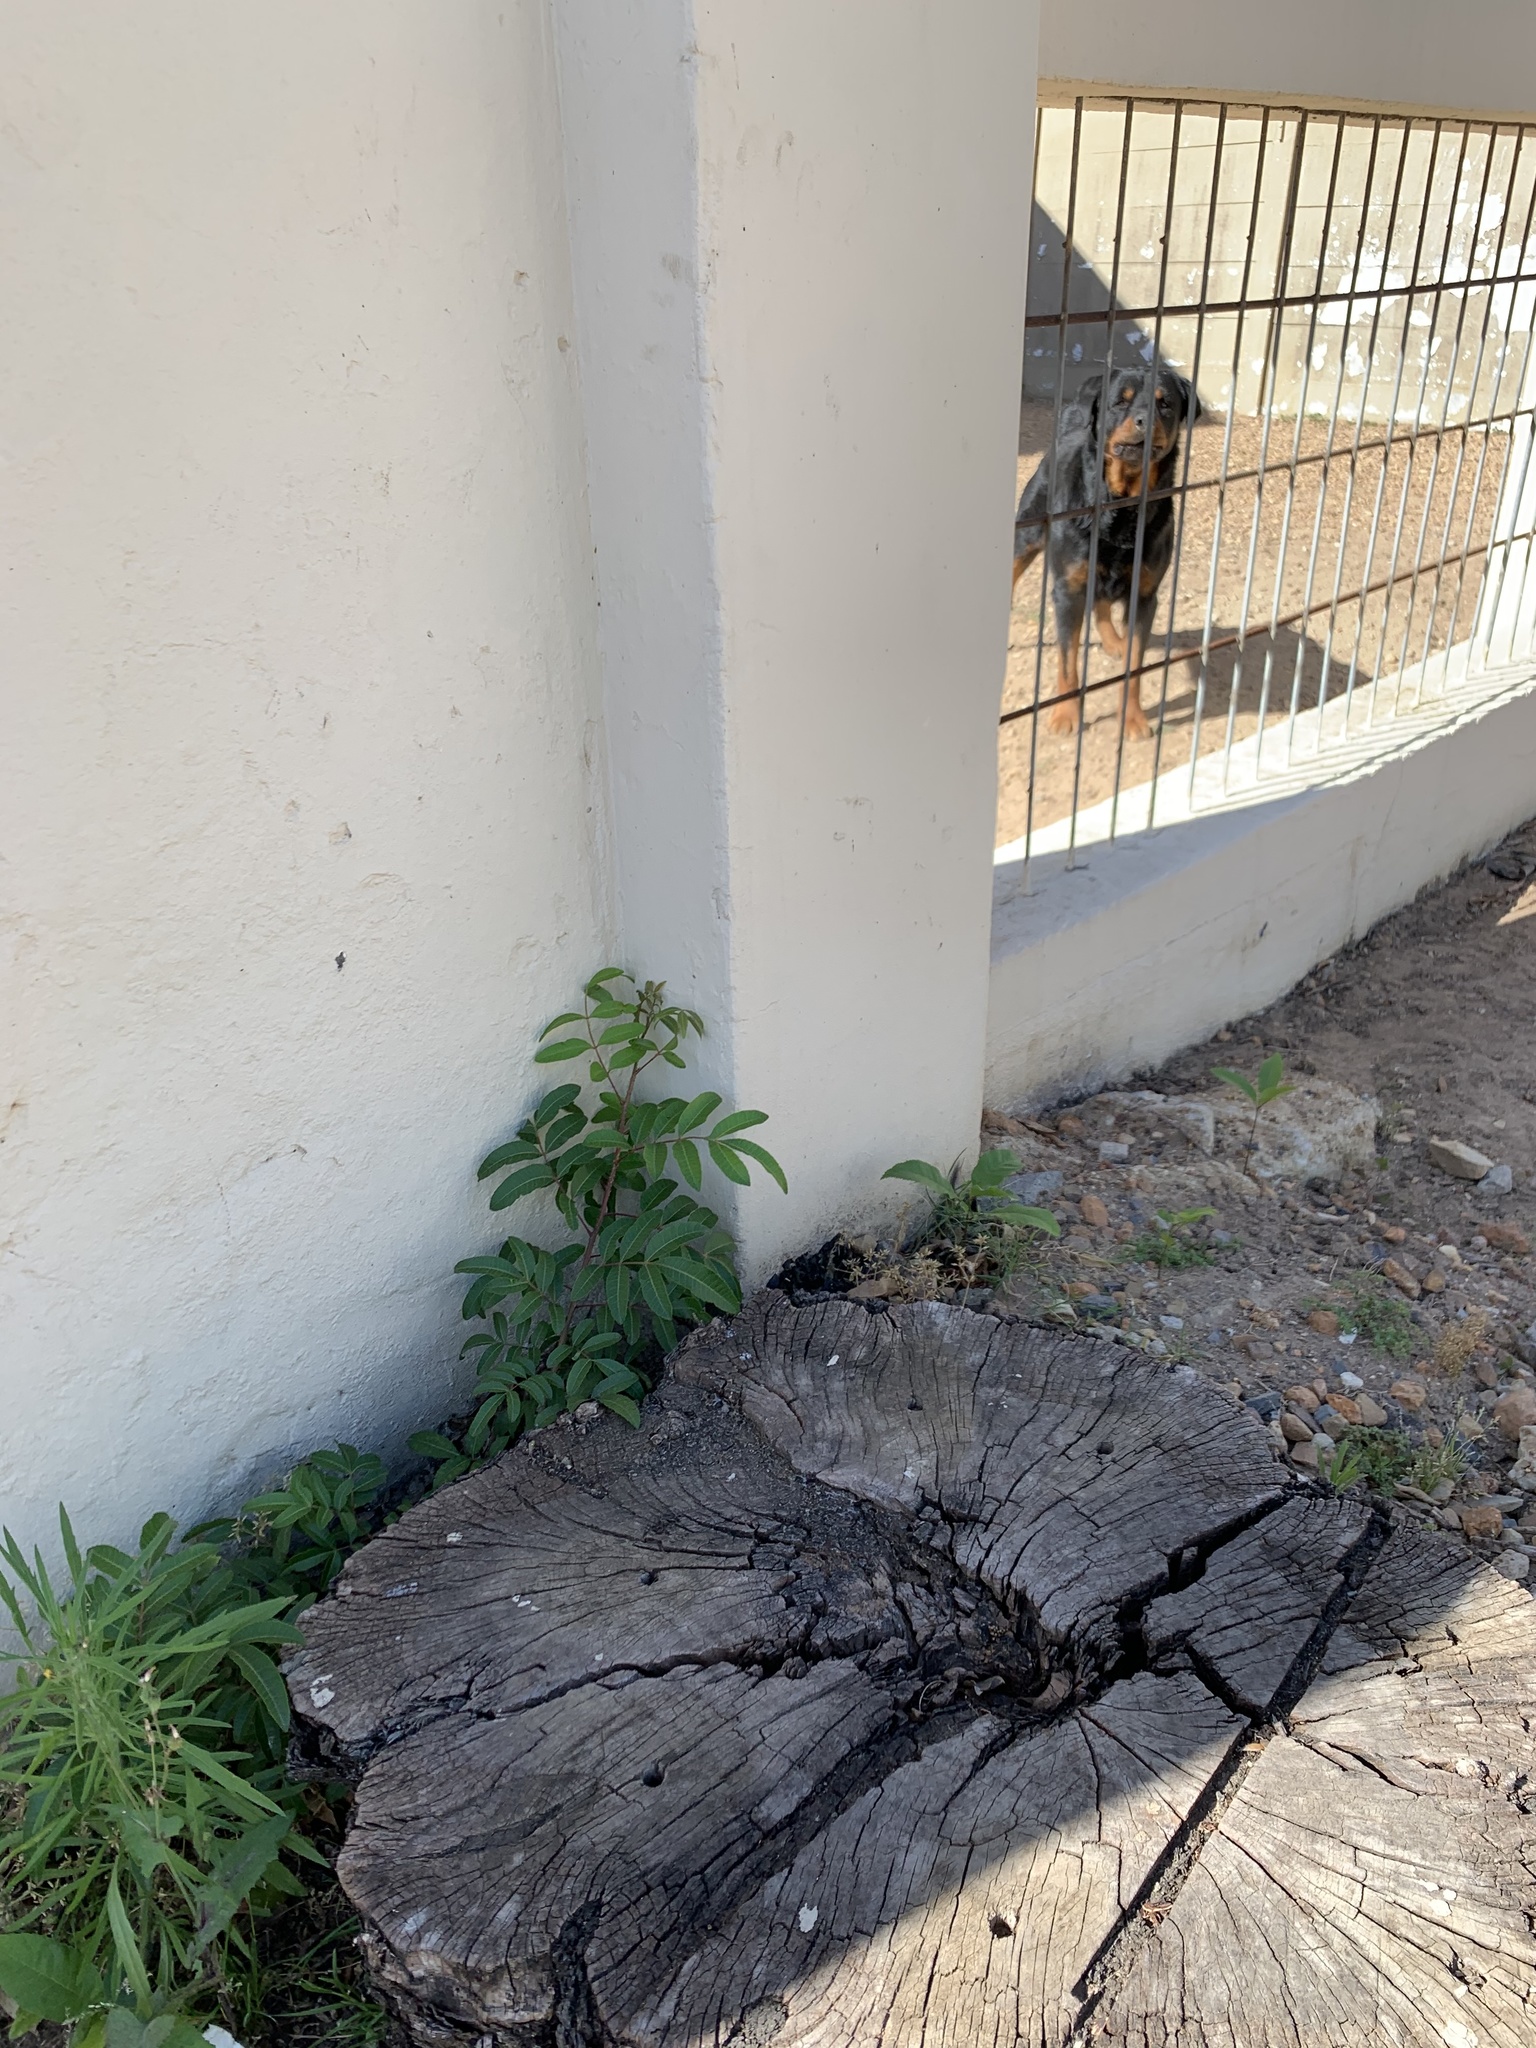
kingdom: Plantae
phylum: Tracheophyta
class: Magnoliopsida
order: Sapindales
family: Anacardiaceae
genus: Schinus
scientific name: Schinus terebinthifolia
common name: Brazilian peppertree
